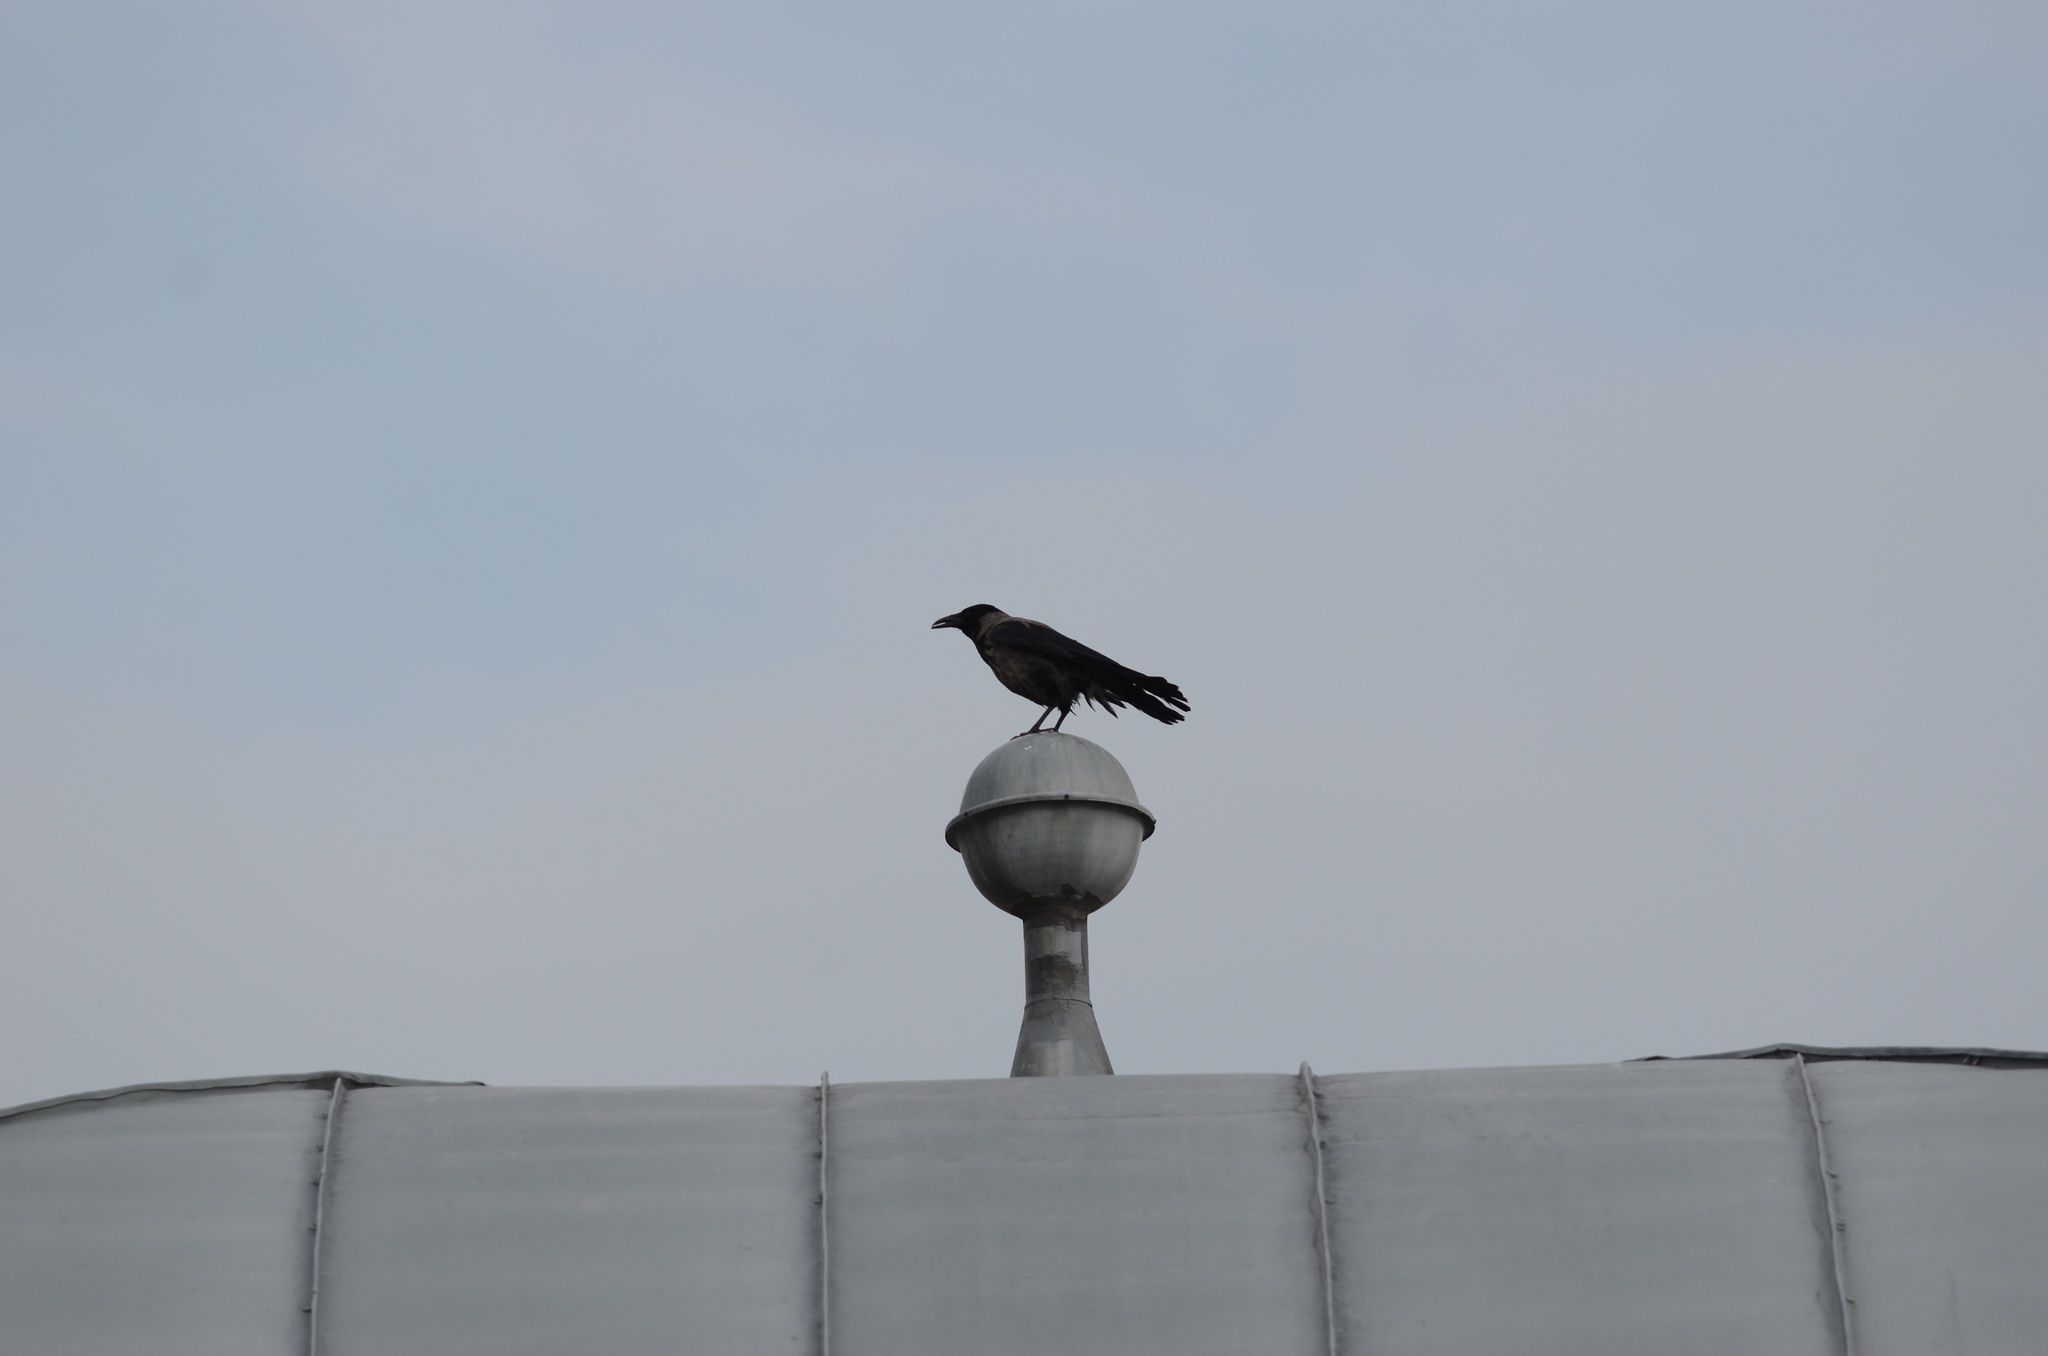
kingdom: Animalia
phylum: Chordata
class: Aves
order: Passeriformes
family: Corvidae
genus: Corvus
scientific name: Corvus
